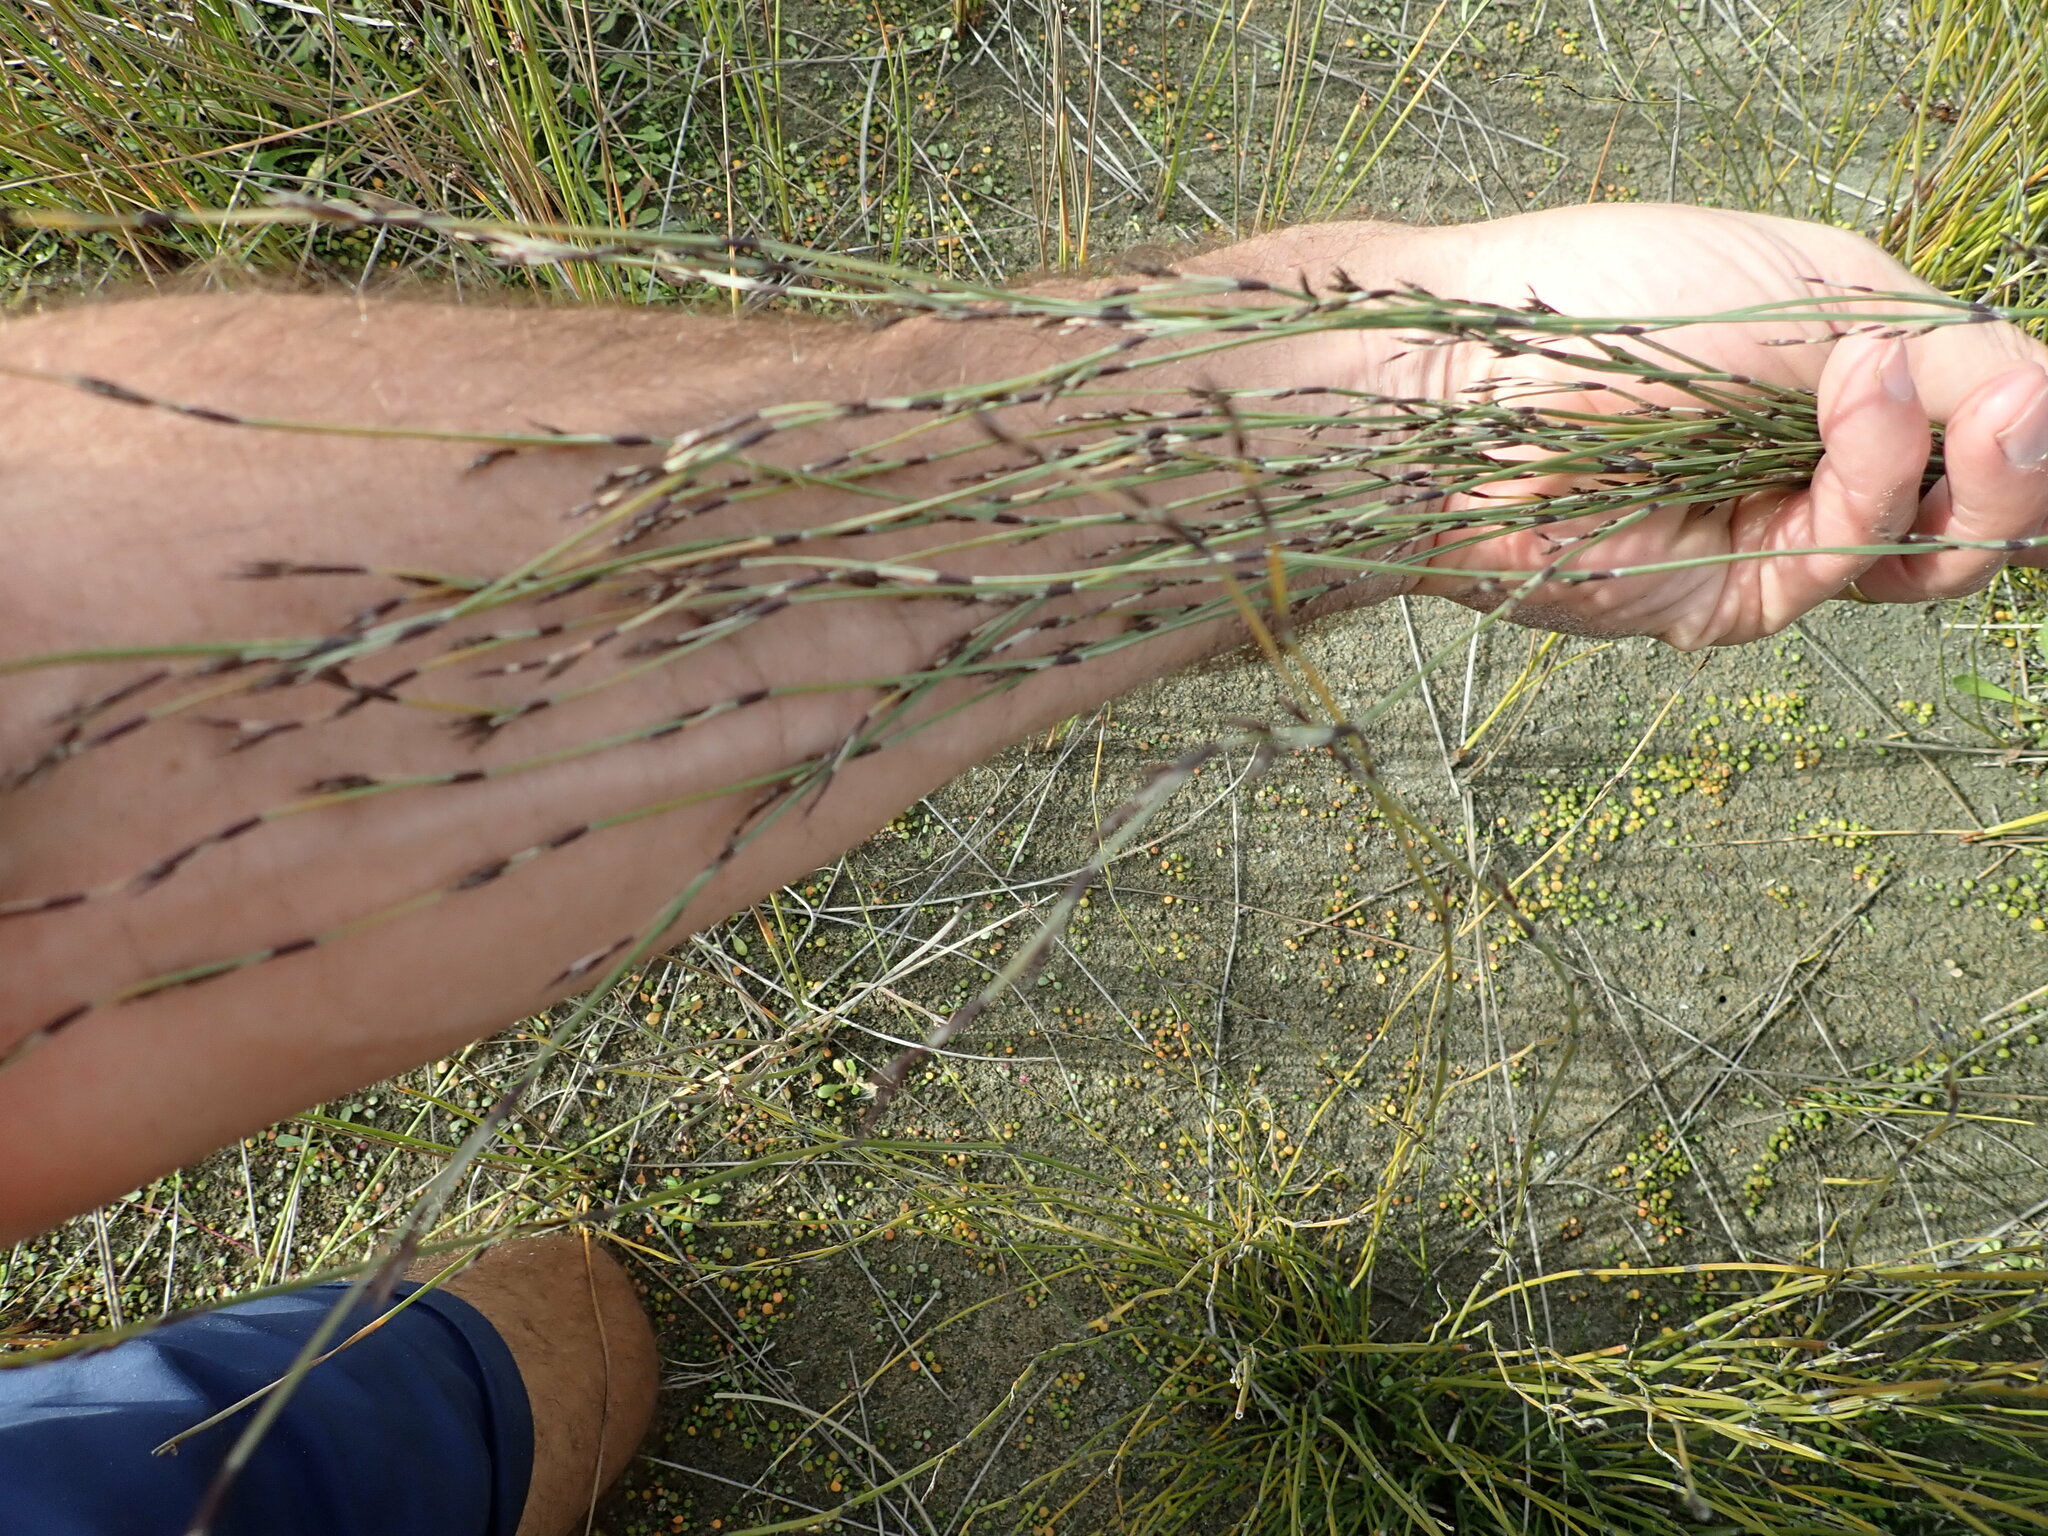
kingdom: Plantae
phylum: Tracheophyta
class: Liliopsida
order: Poales
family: Restionaceae
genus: Apodasmia
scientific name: Apodasmia similis
